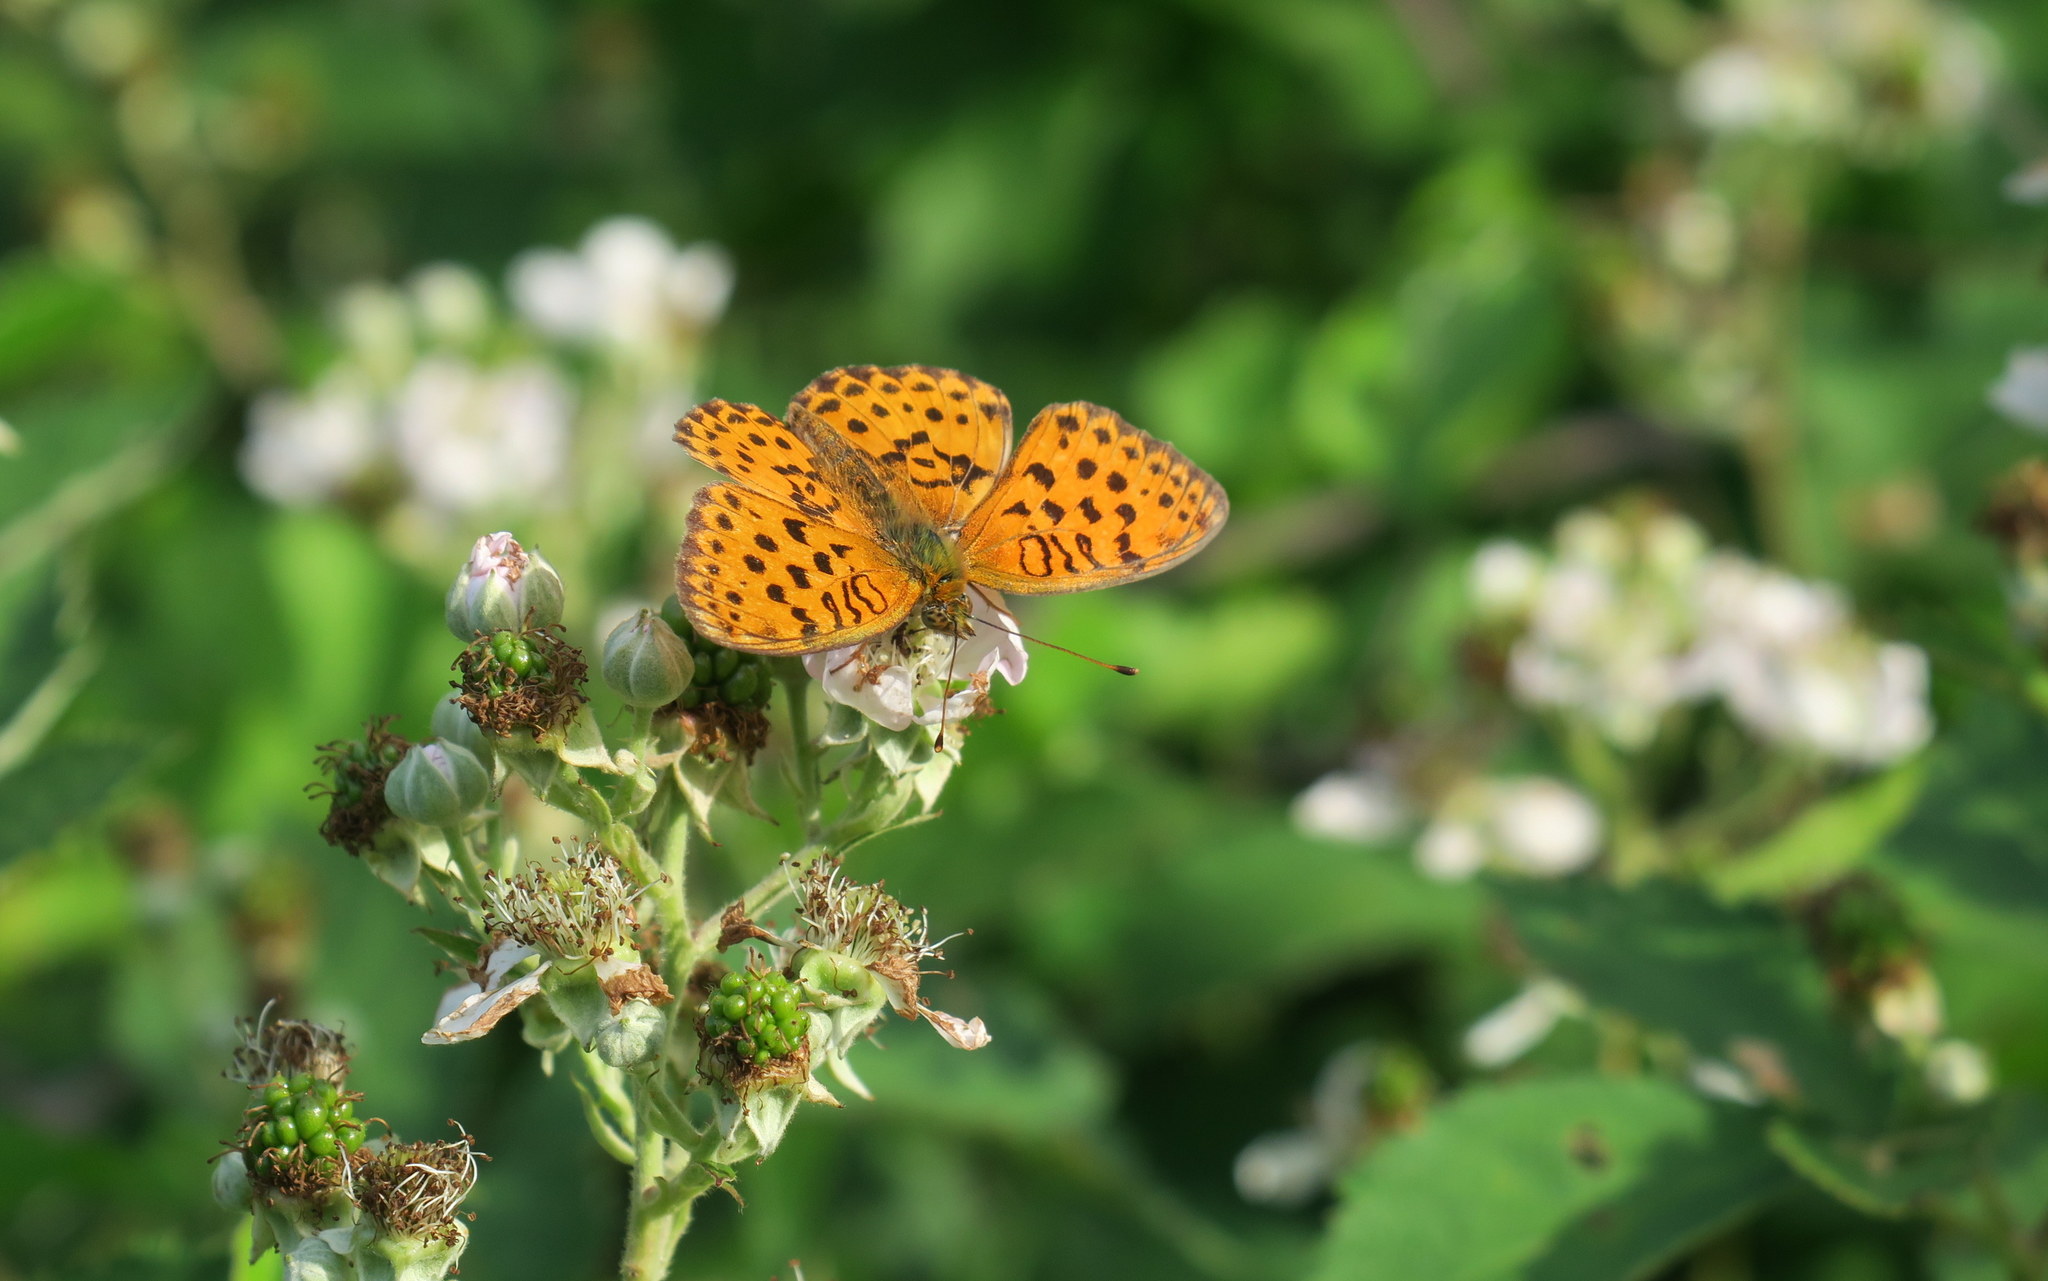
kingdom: Animalia
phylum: Arthropoda
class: Insecta
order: Lepidoptera
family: Nymphalidae
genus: Brenthis
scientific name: Brenthis daphne
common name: Marbled fritillary
